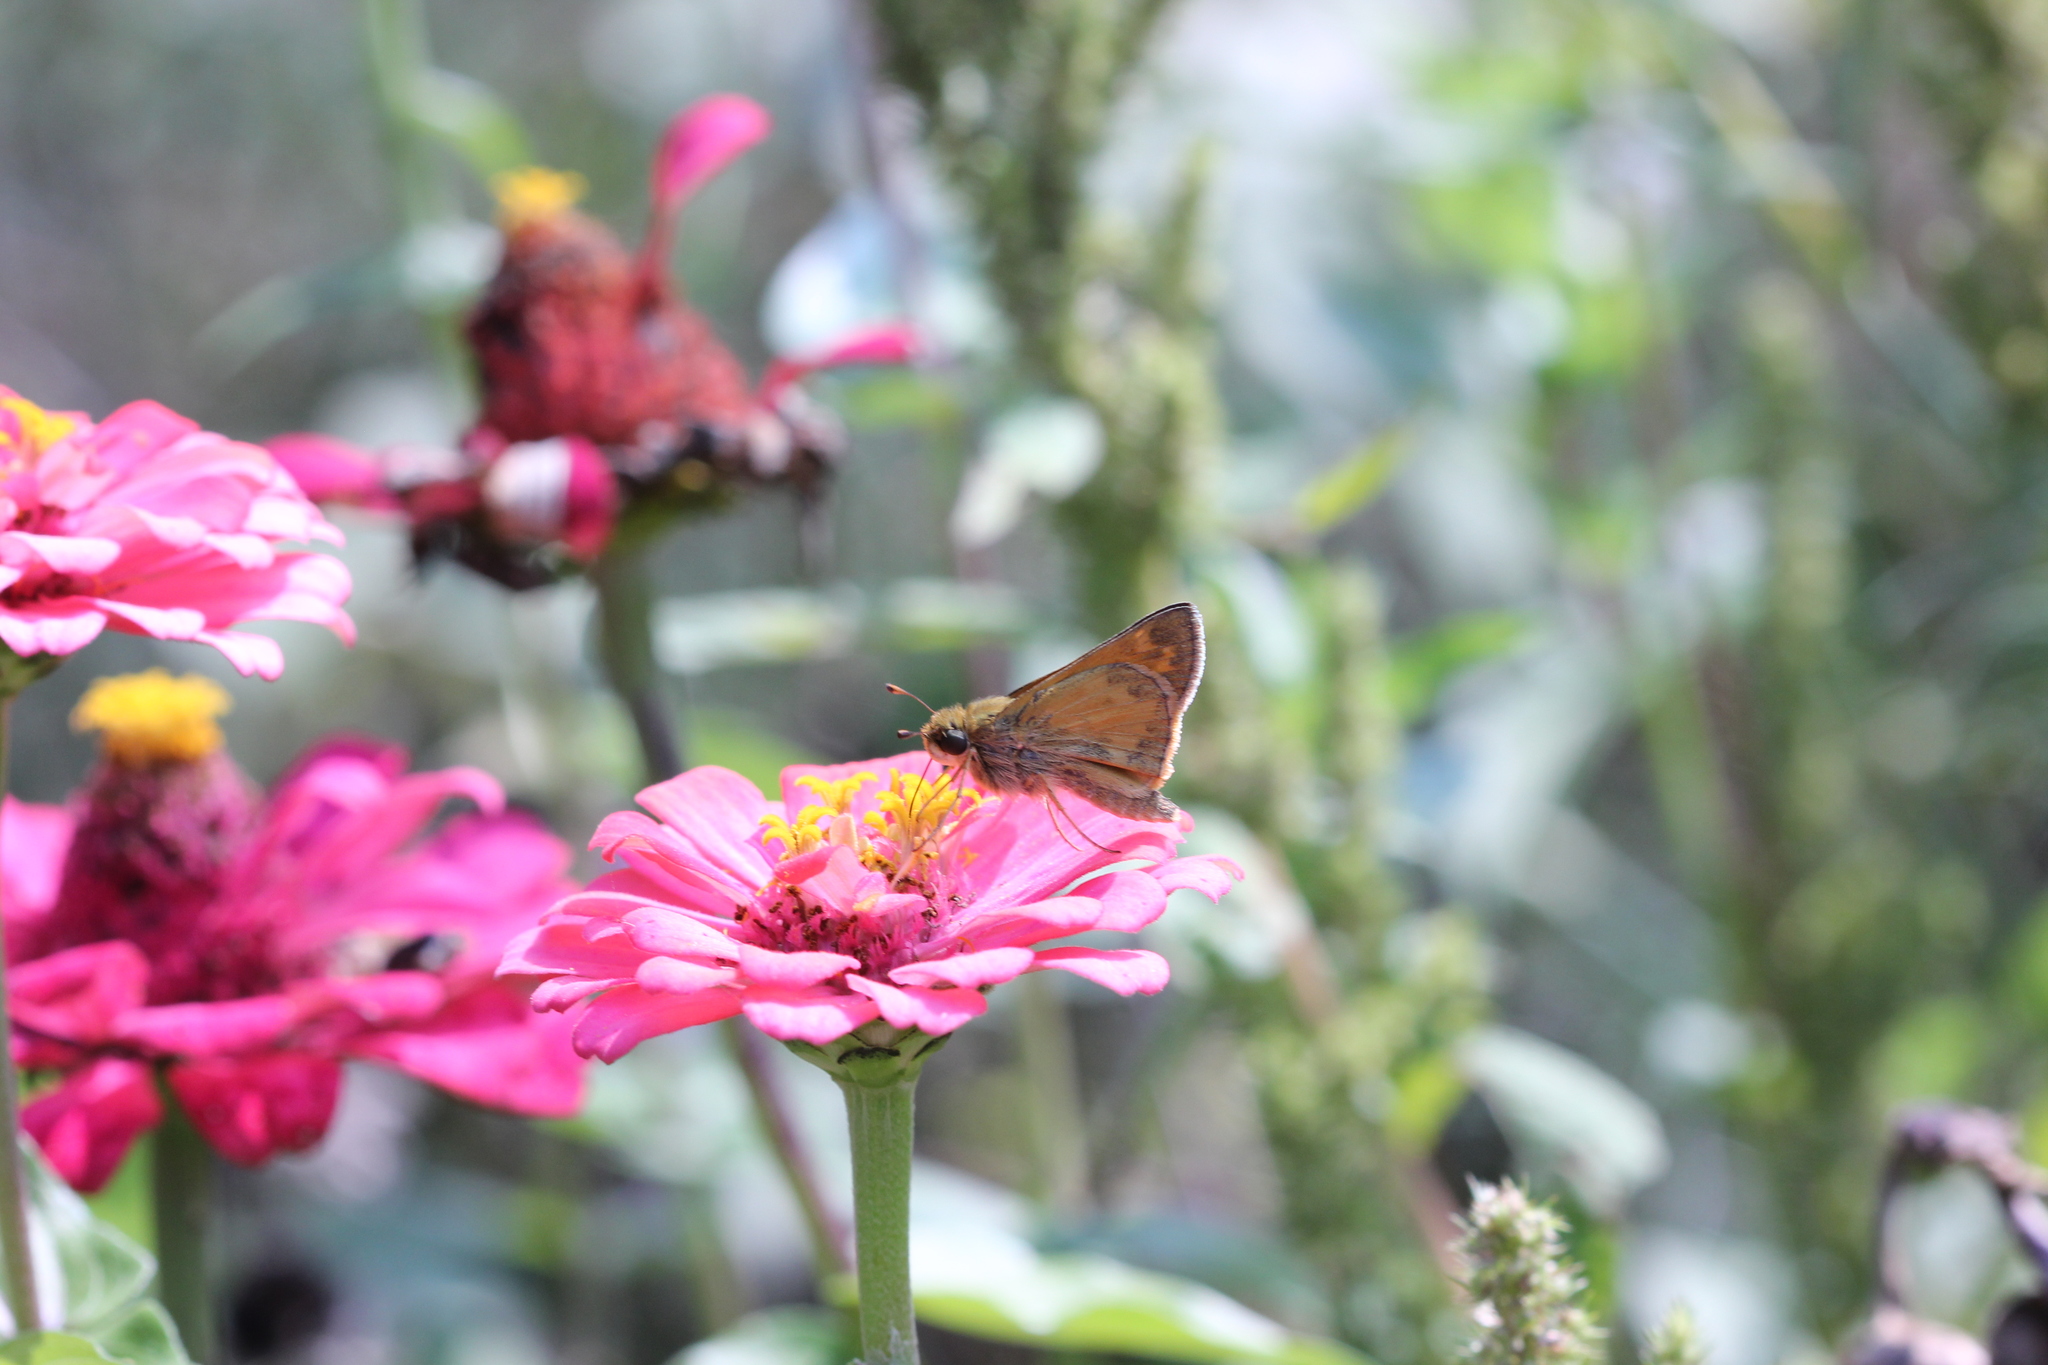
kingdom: Animalia
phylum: Arthropoda
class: Insecta
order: Lepidoptera
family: Hesperiidae
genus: Atalopedes
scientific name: Atalopedes
